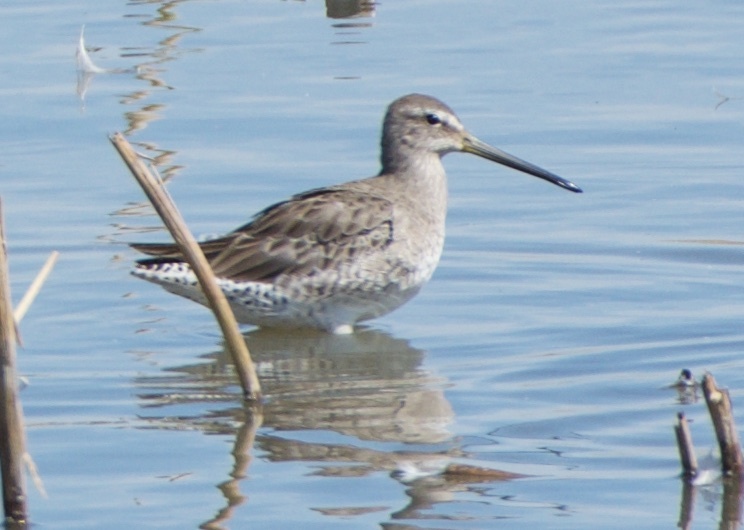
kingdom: Animalia
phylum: Chordata
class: Aves
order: Charadriiformes
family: Scolopacidae
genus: Limnodromus
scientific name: Limnodromus scolopaceus
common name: Long-billed dowitcher
